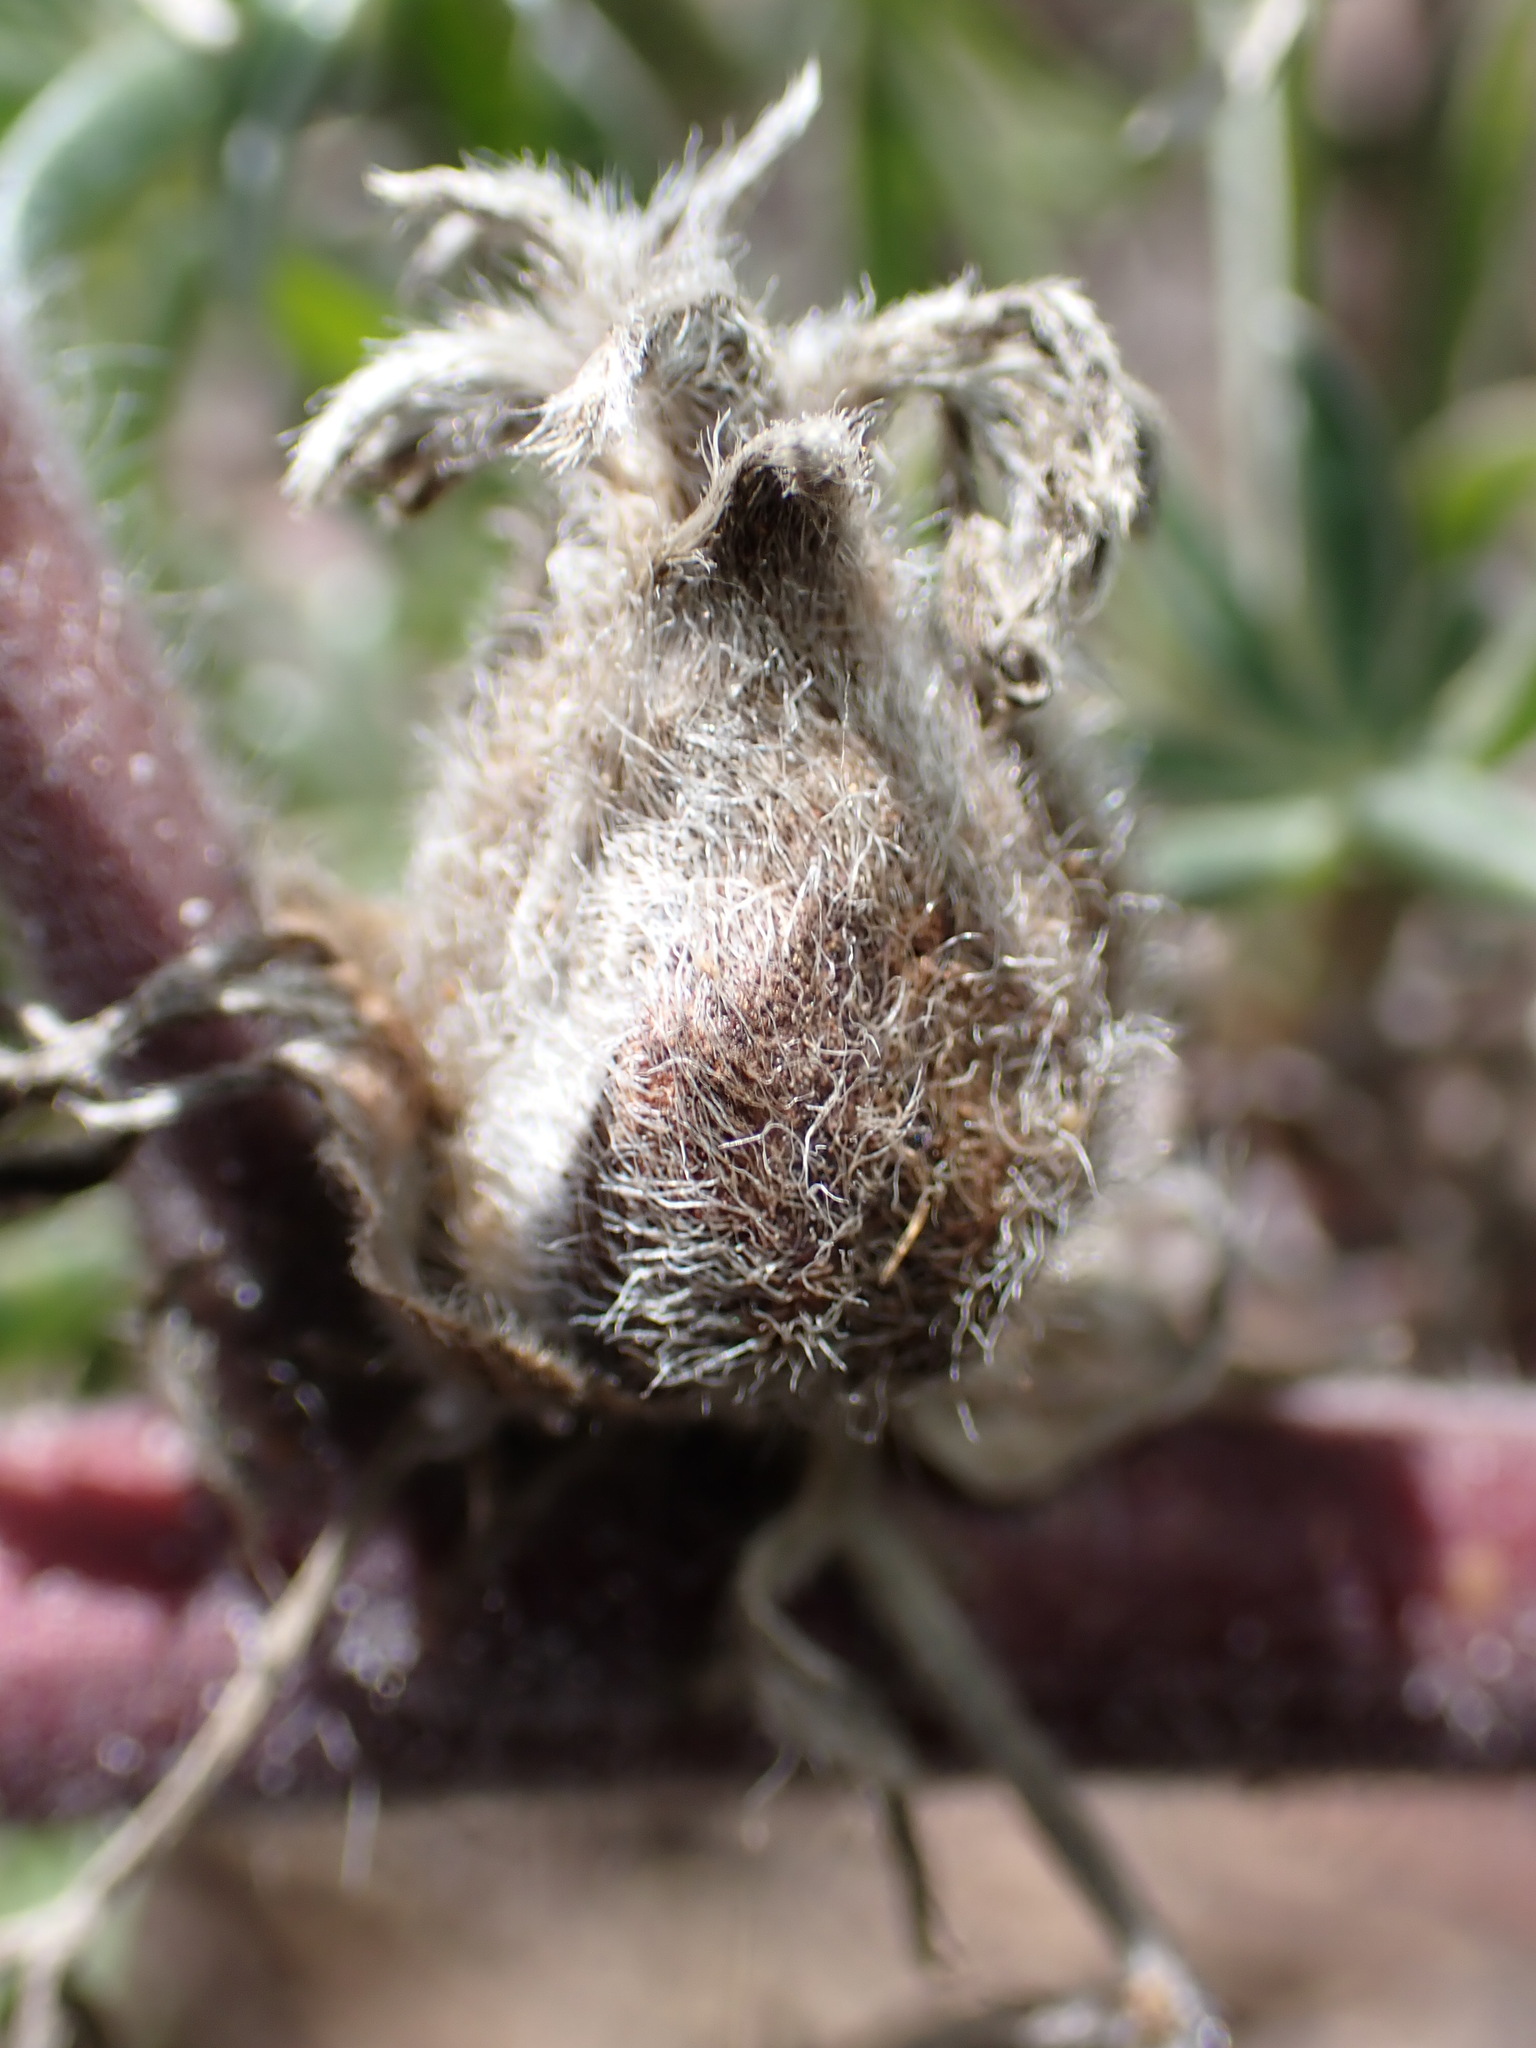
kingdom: Animalia
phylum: Arthropoda
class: Insecta
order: Diptera
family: Cecidomyiidae
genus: Dasineura
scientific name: Dasineura lupini
